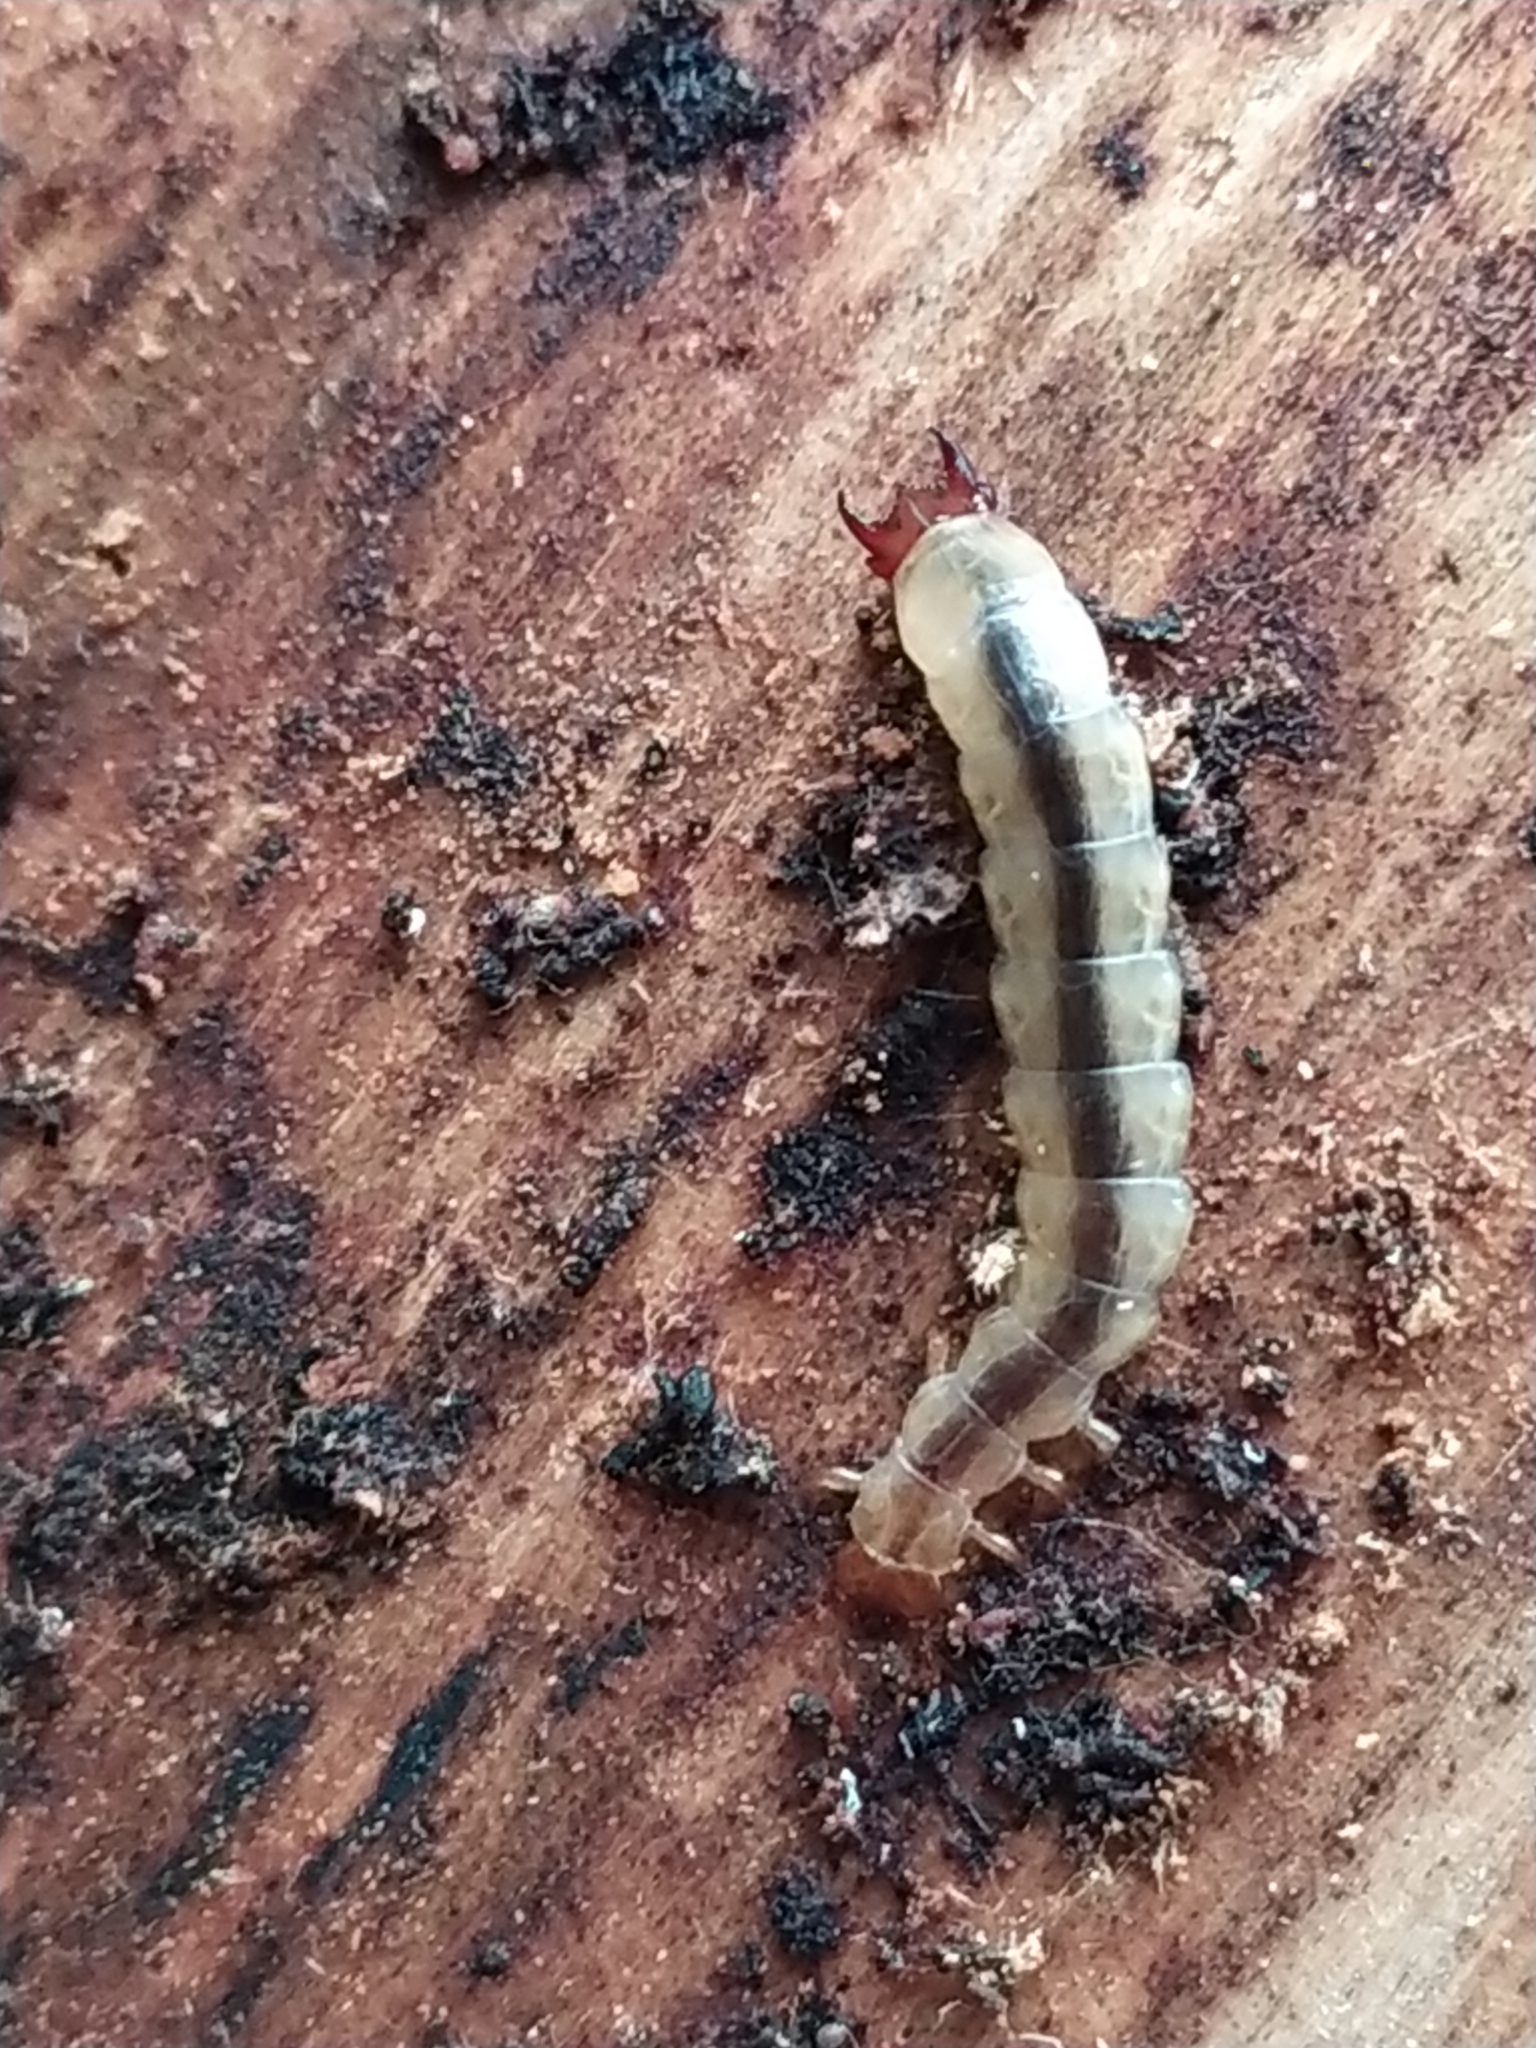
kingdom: Animalia
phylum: Arthropoda
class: Insecta
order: Coleoptera
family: Boridae
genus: Boros
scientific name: Boros schneideri
